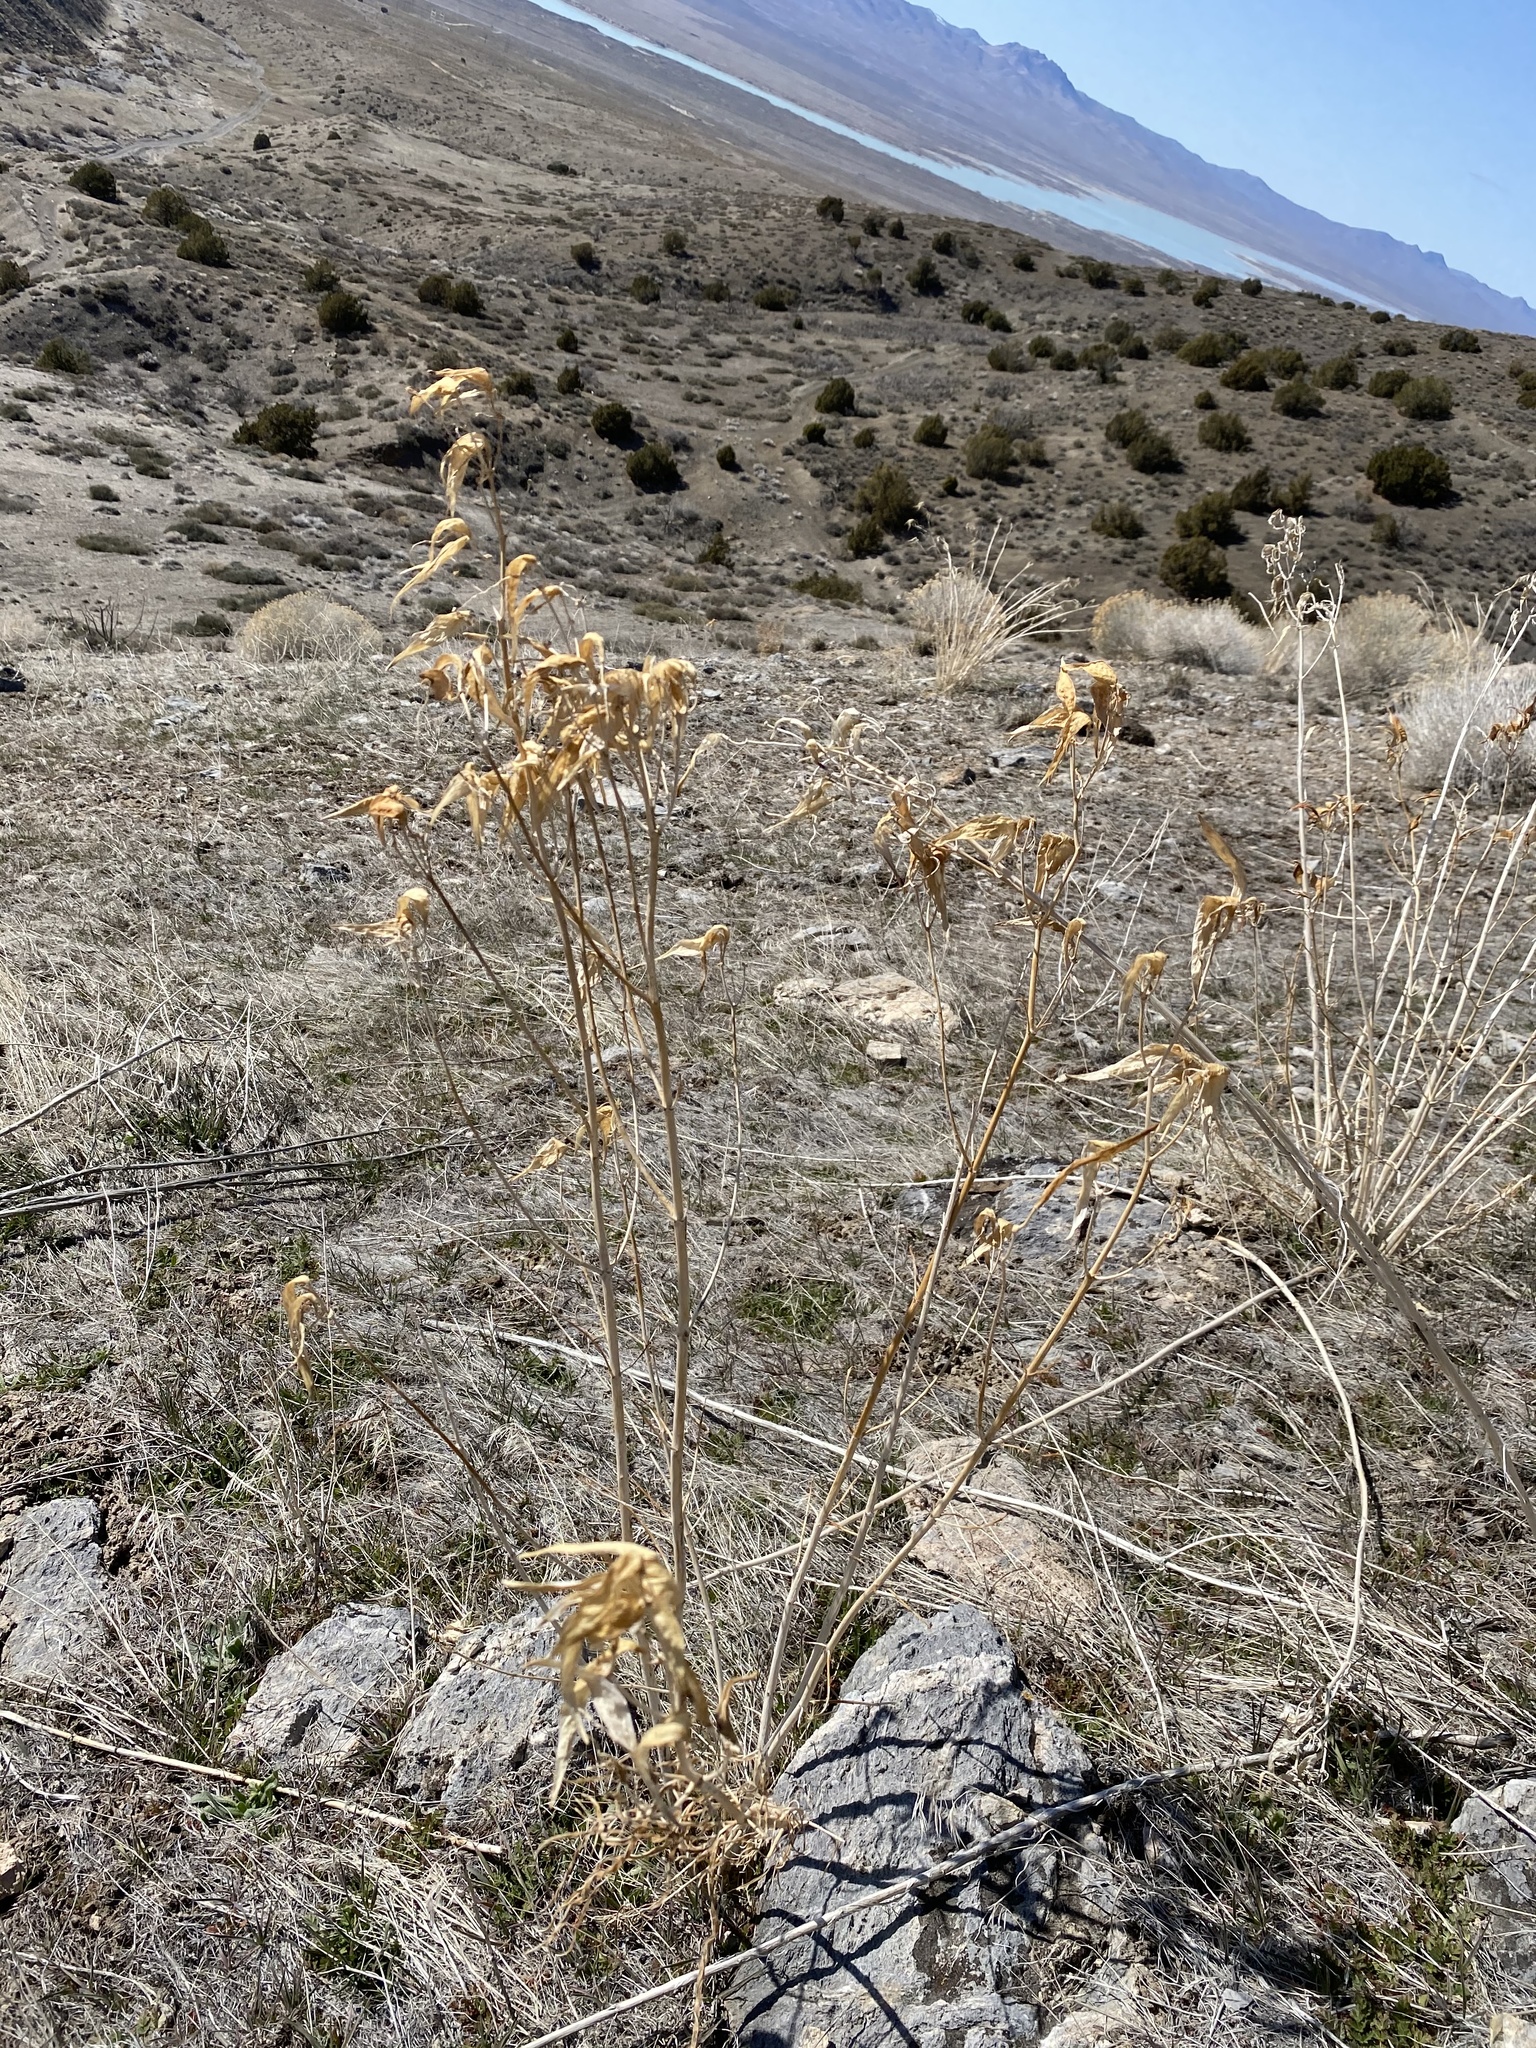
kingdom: Plantae
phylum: Tracheophyta
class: Magnoliopsida
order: Gentianales
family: Apocynaceae
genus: Asclepias
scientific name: Asclepias fascicularis
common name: Mexican milkweed
